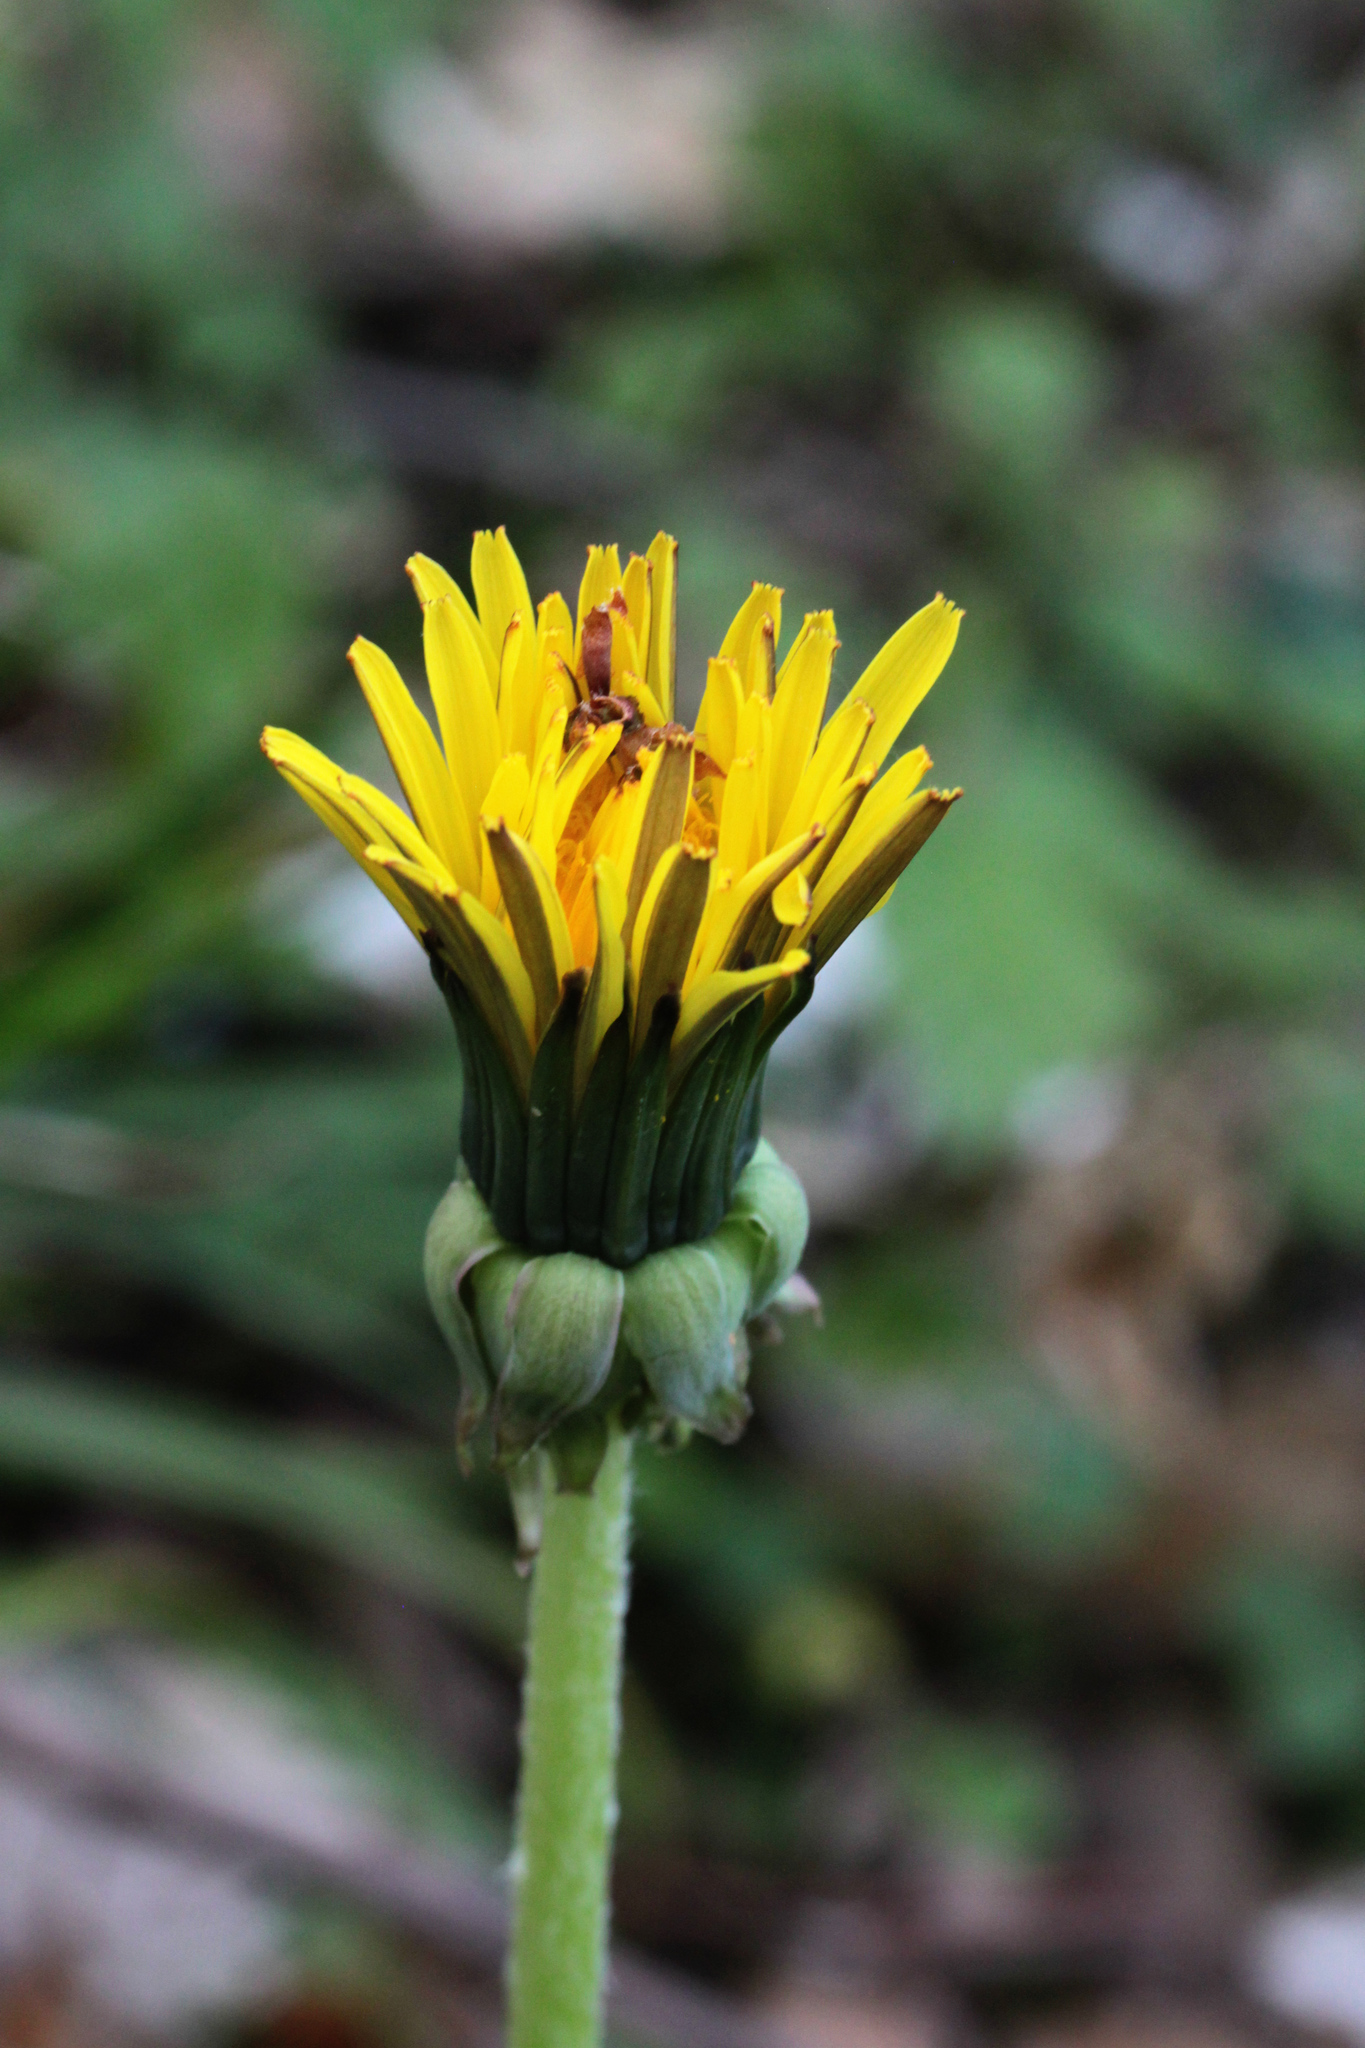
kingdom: Plantae
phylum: Tracheophyta
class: Magnoliopsida
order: Asterales
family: Asteraceae
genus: Taraxacum
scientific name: Taraxacum
